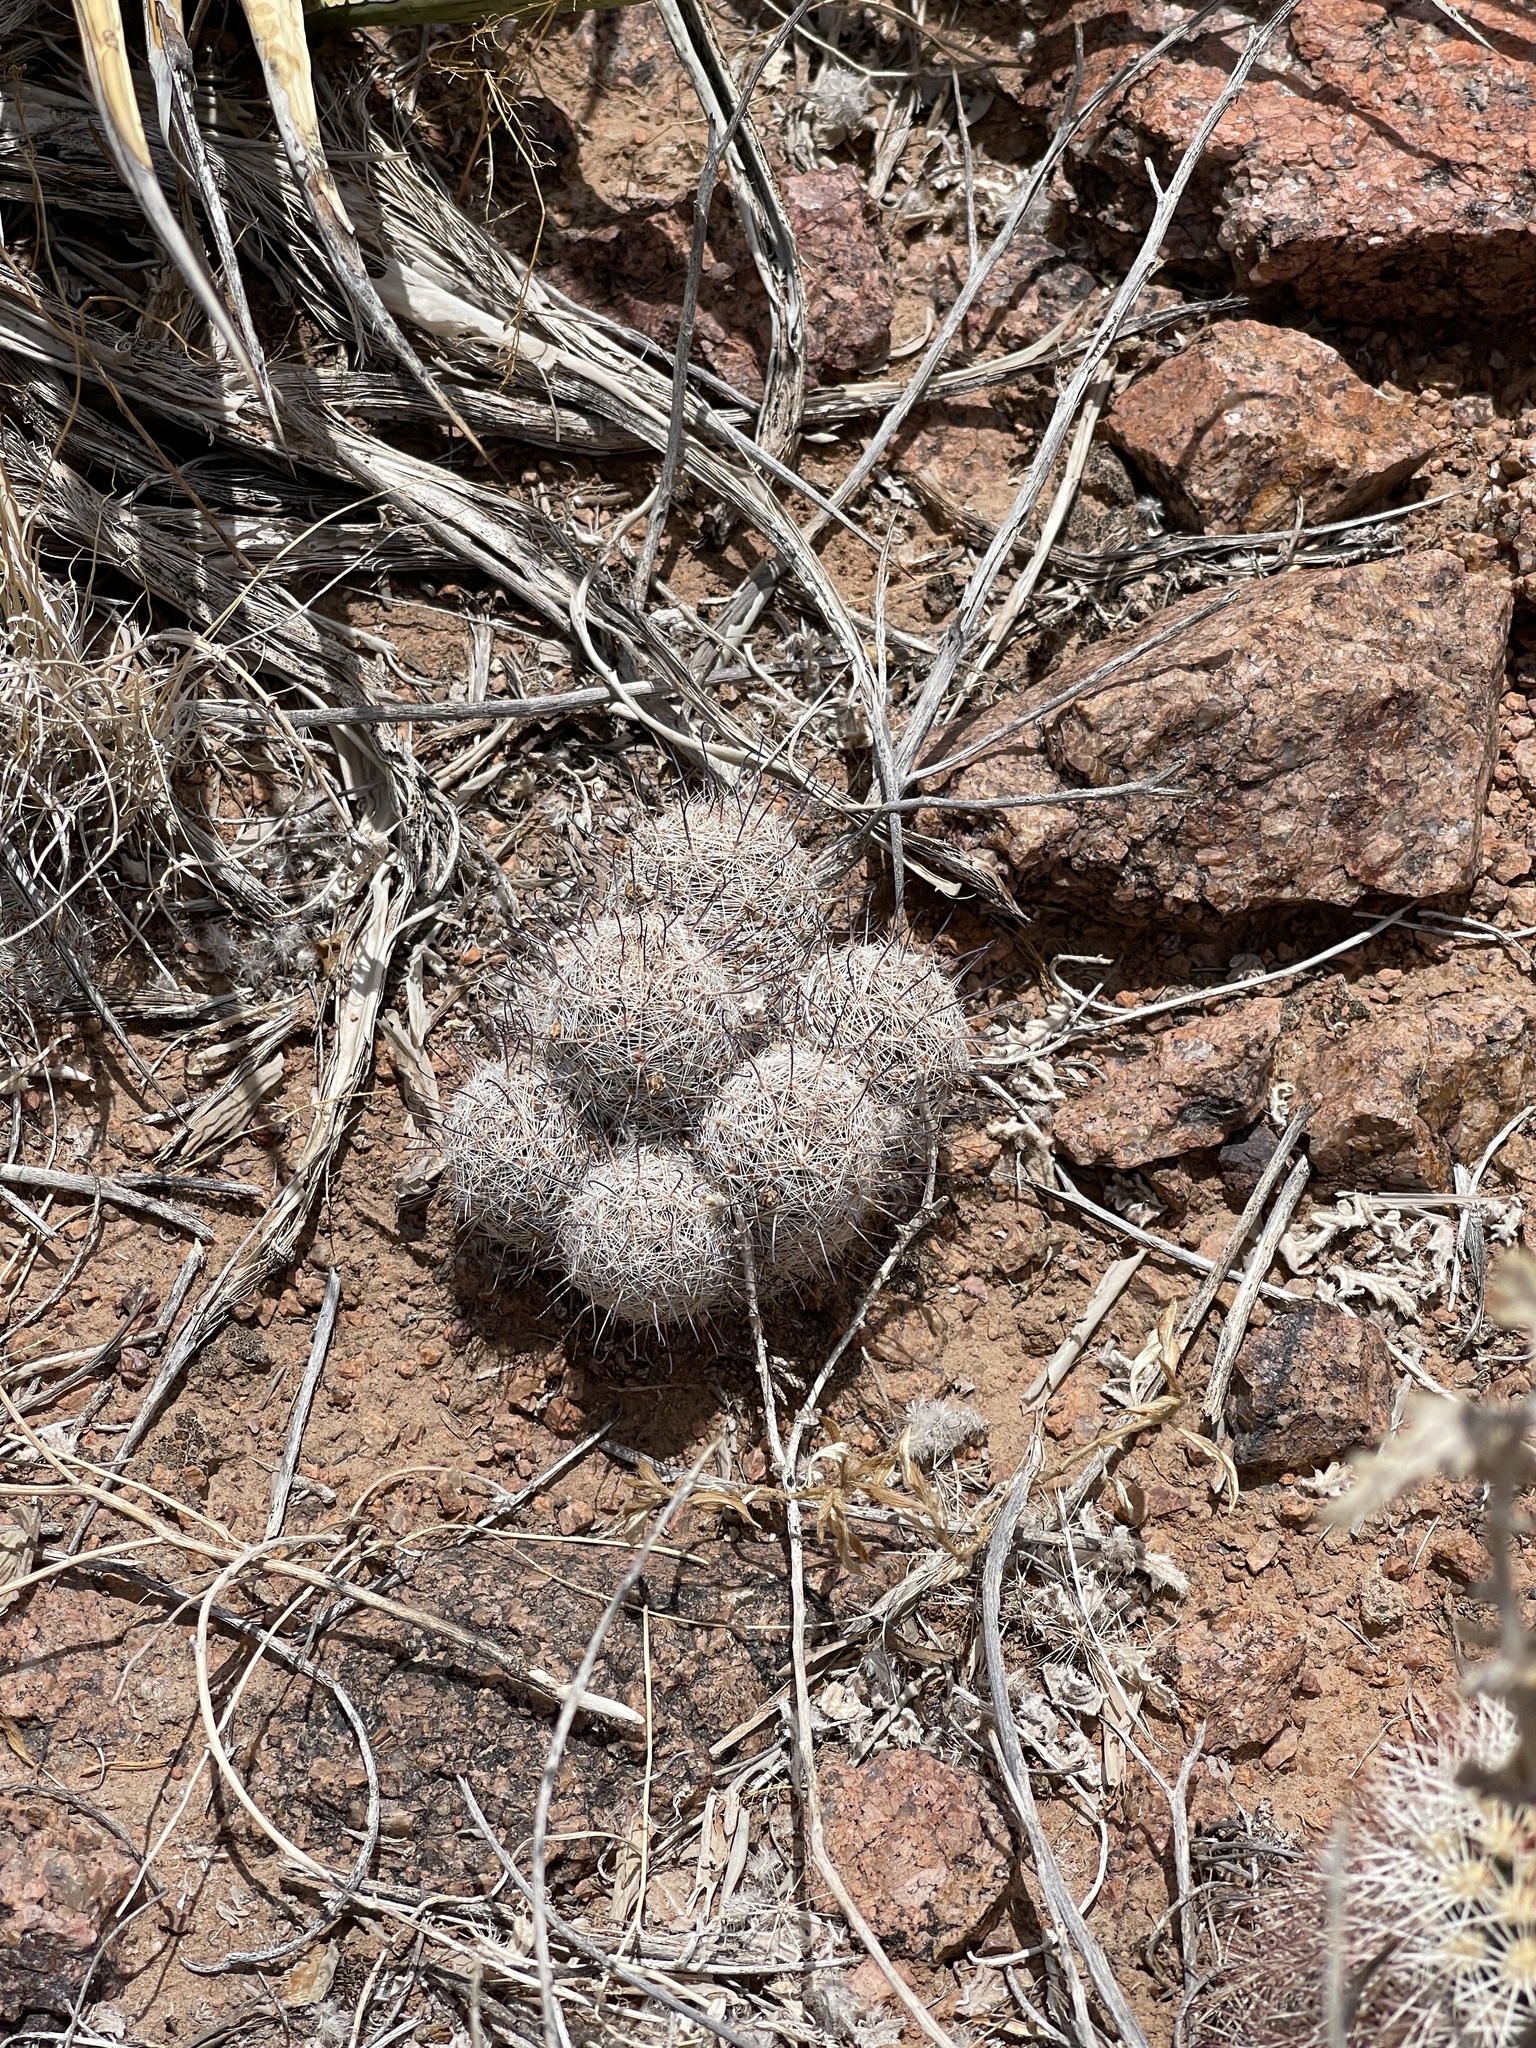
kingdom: Plantae
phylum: Tracheophyta
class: Magnoliopsida
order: Caryophyllales
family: Cactaceae
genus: Cochemiea
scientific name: Cochemiea grahamii
